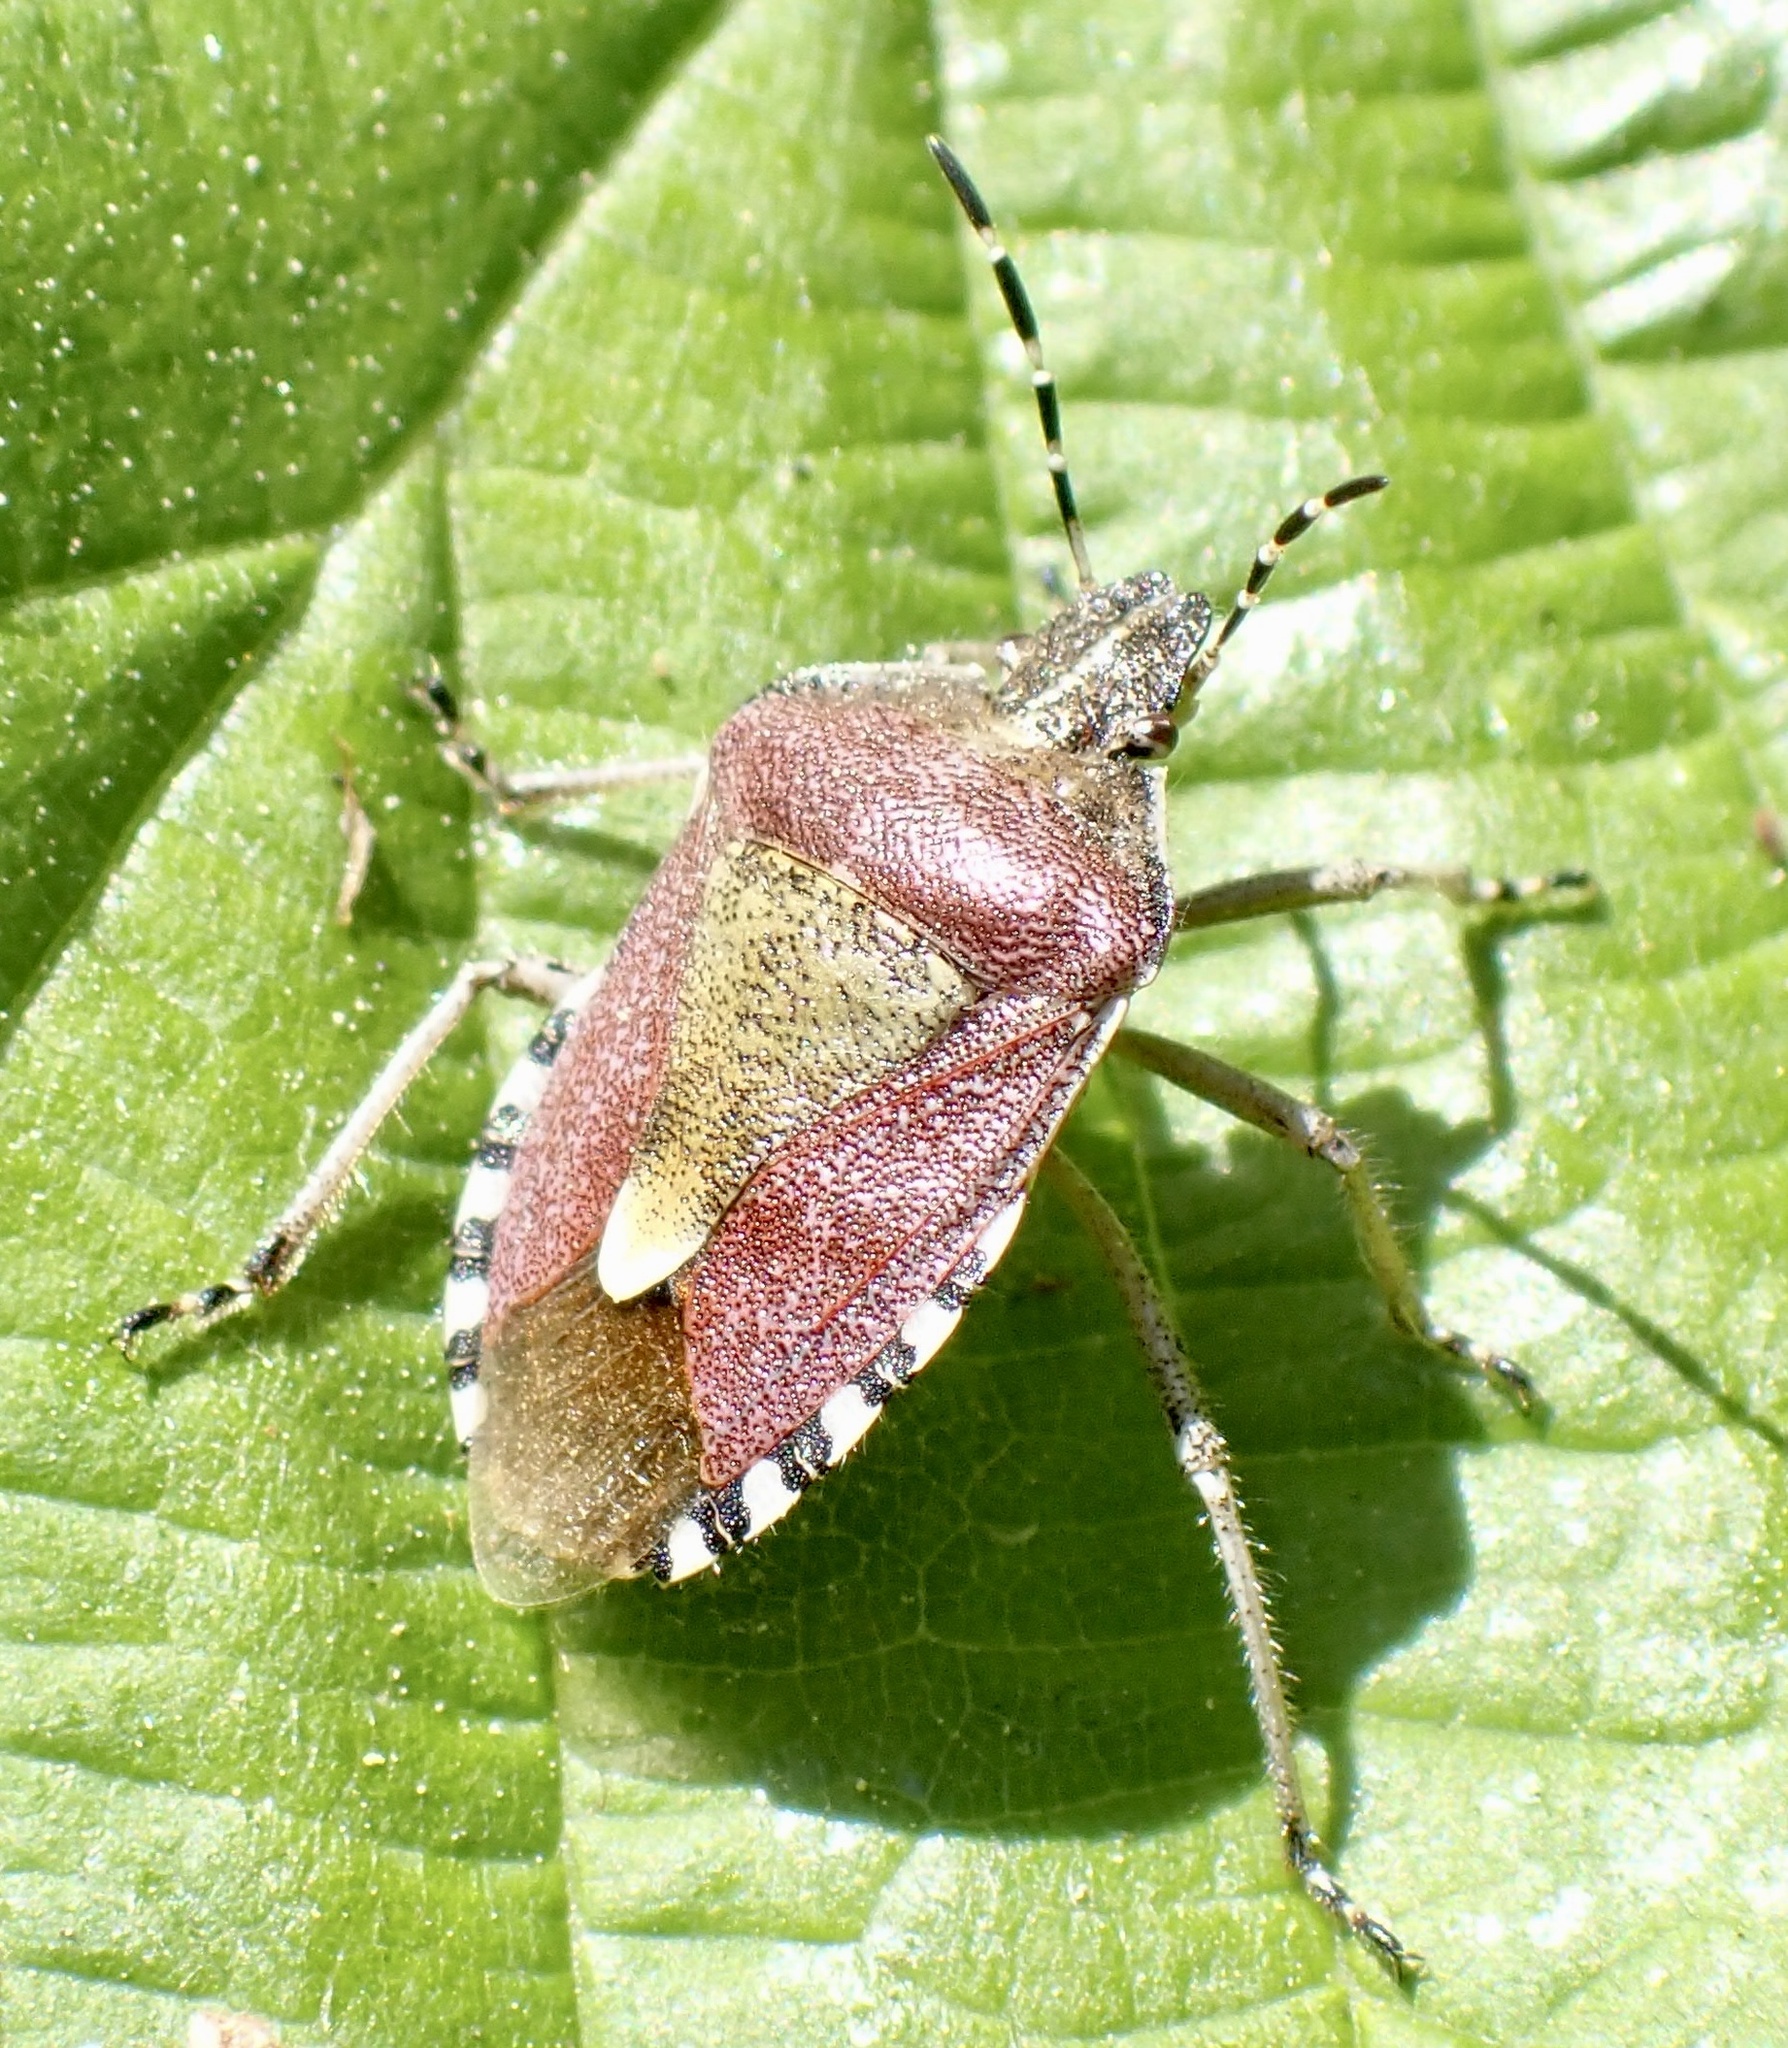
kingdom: Animalia
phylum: Arthropoda
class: Insecta
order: Hemiptera
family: Pentatomidae
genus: Dolycoris
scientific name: Dolycoris baccarum
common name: Sloe bug
